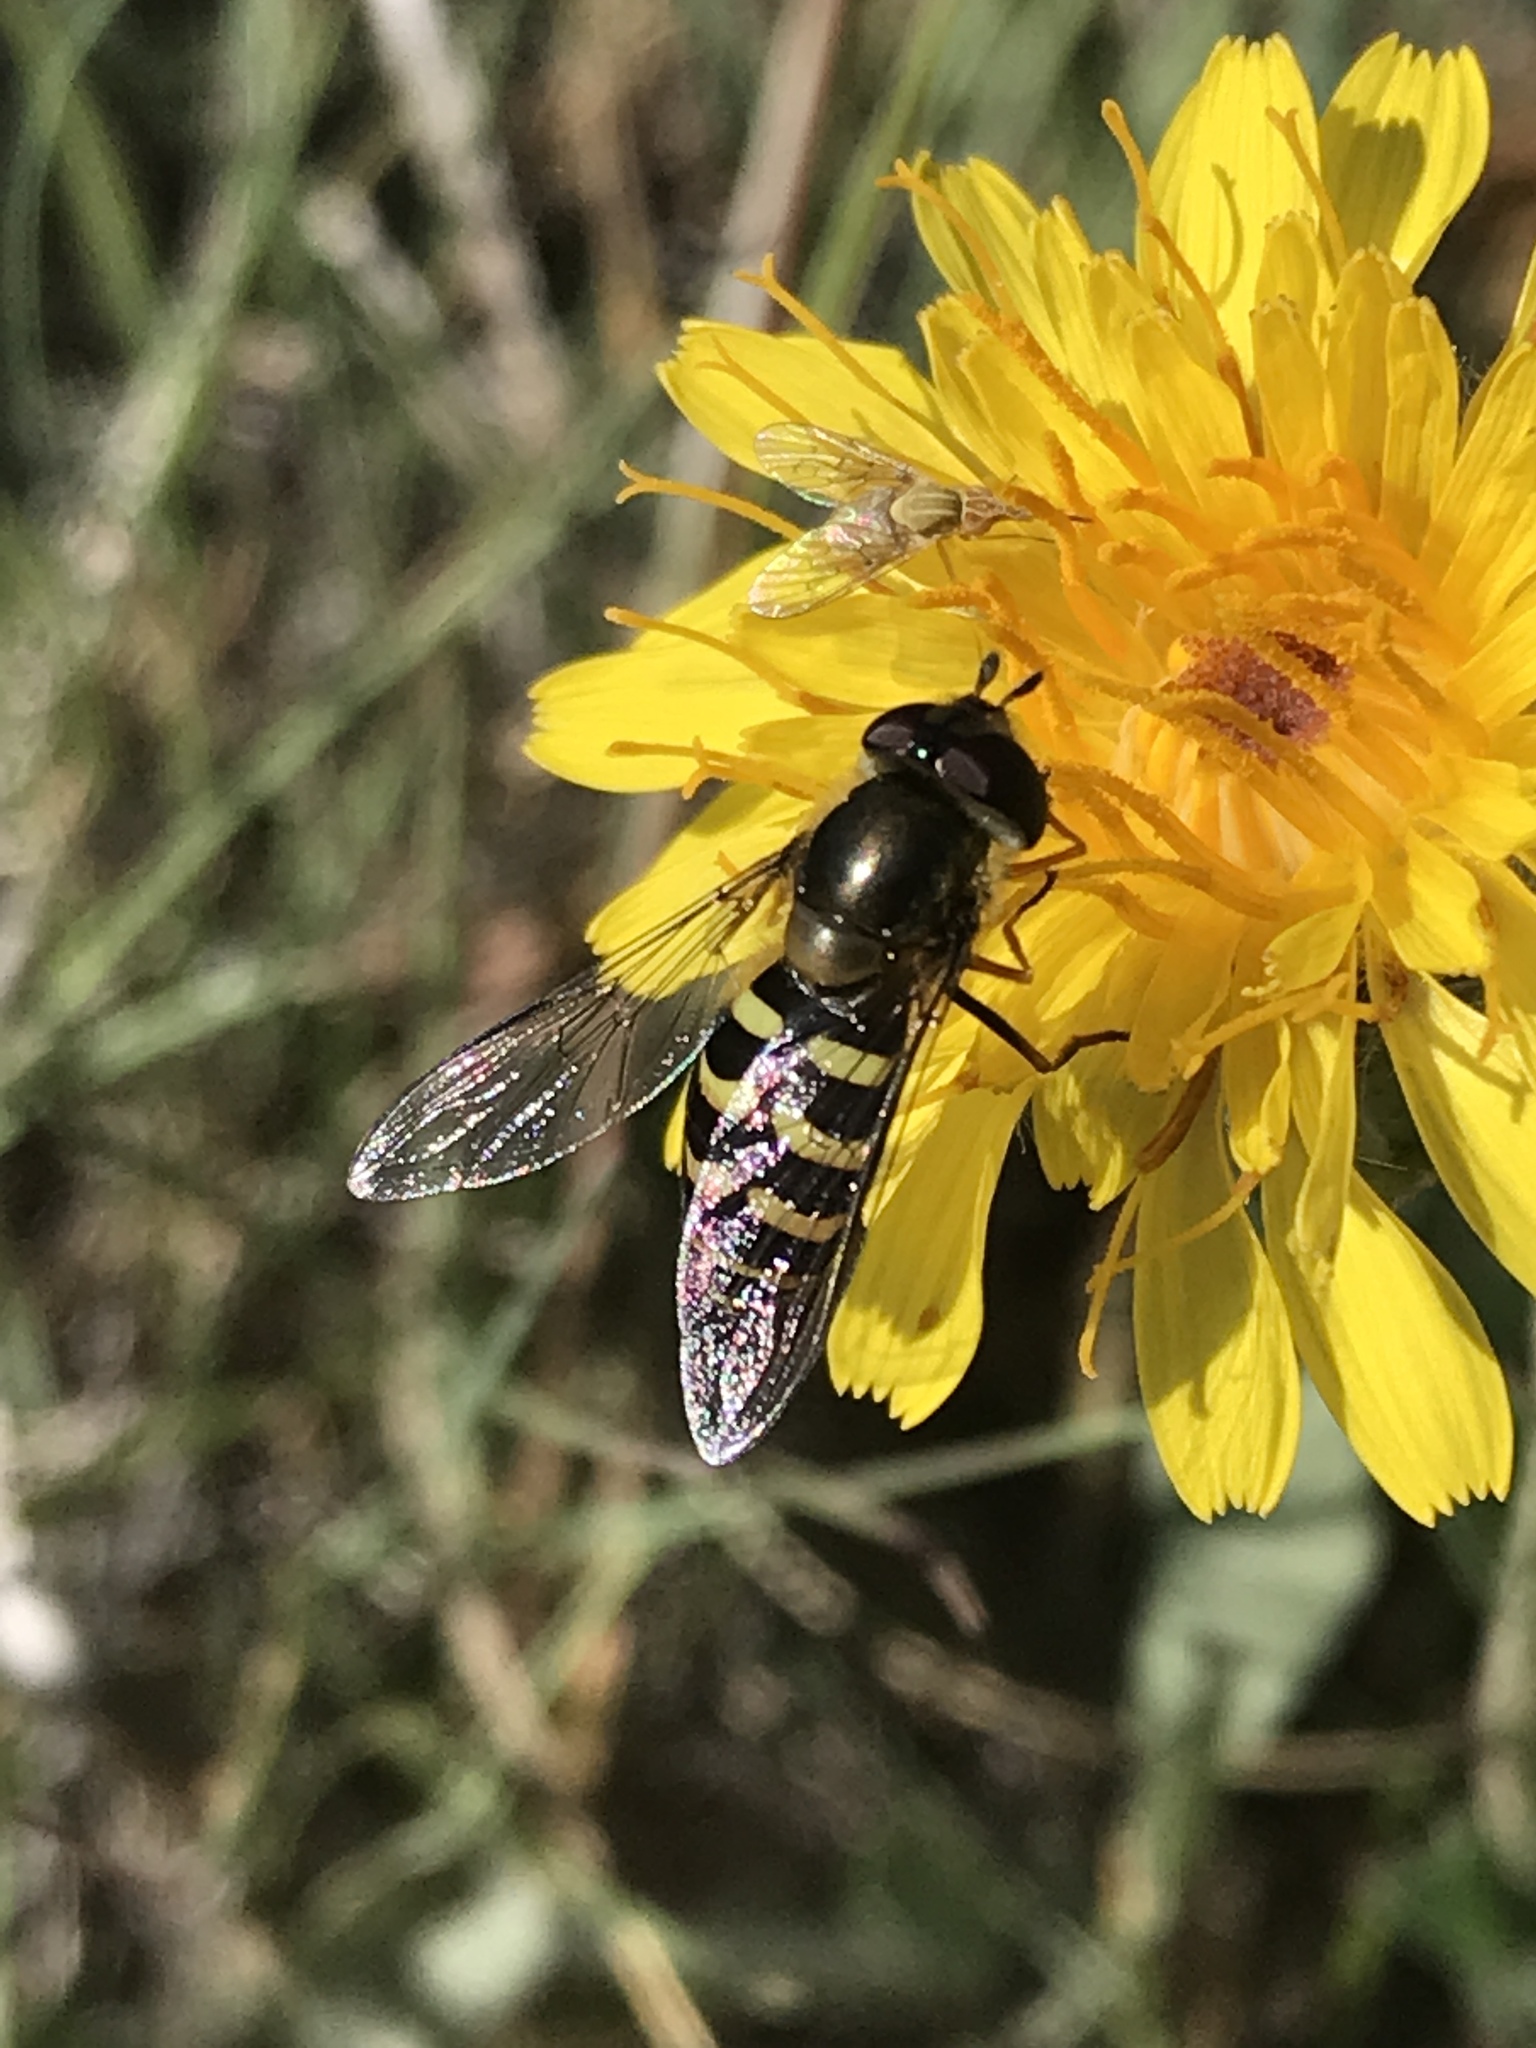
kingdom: Animalia
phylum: Arthropoda
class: Insecta
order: Diptera
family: Syrphidae
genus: Lapposyrphus
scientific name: Lapposyrphus lapponicus
